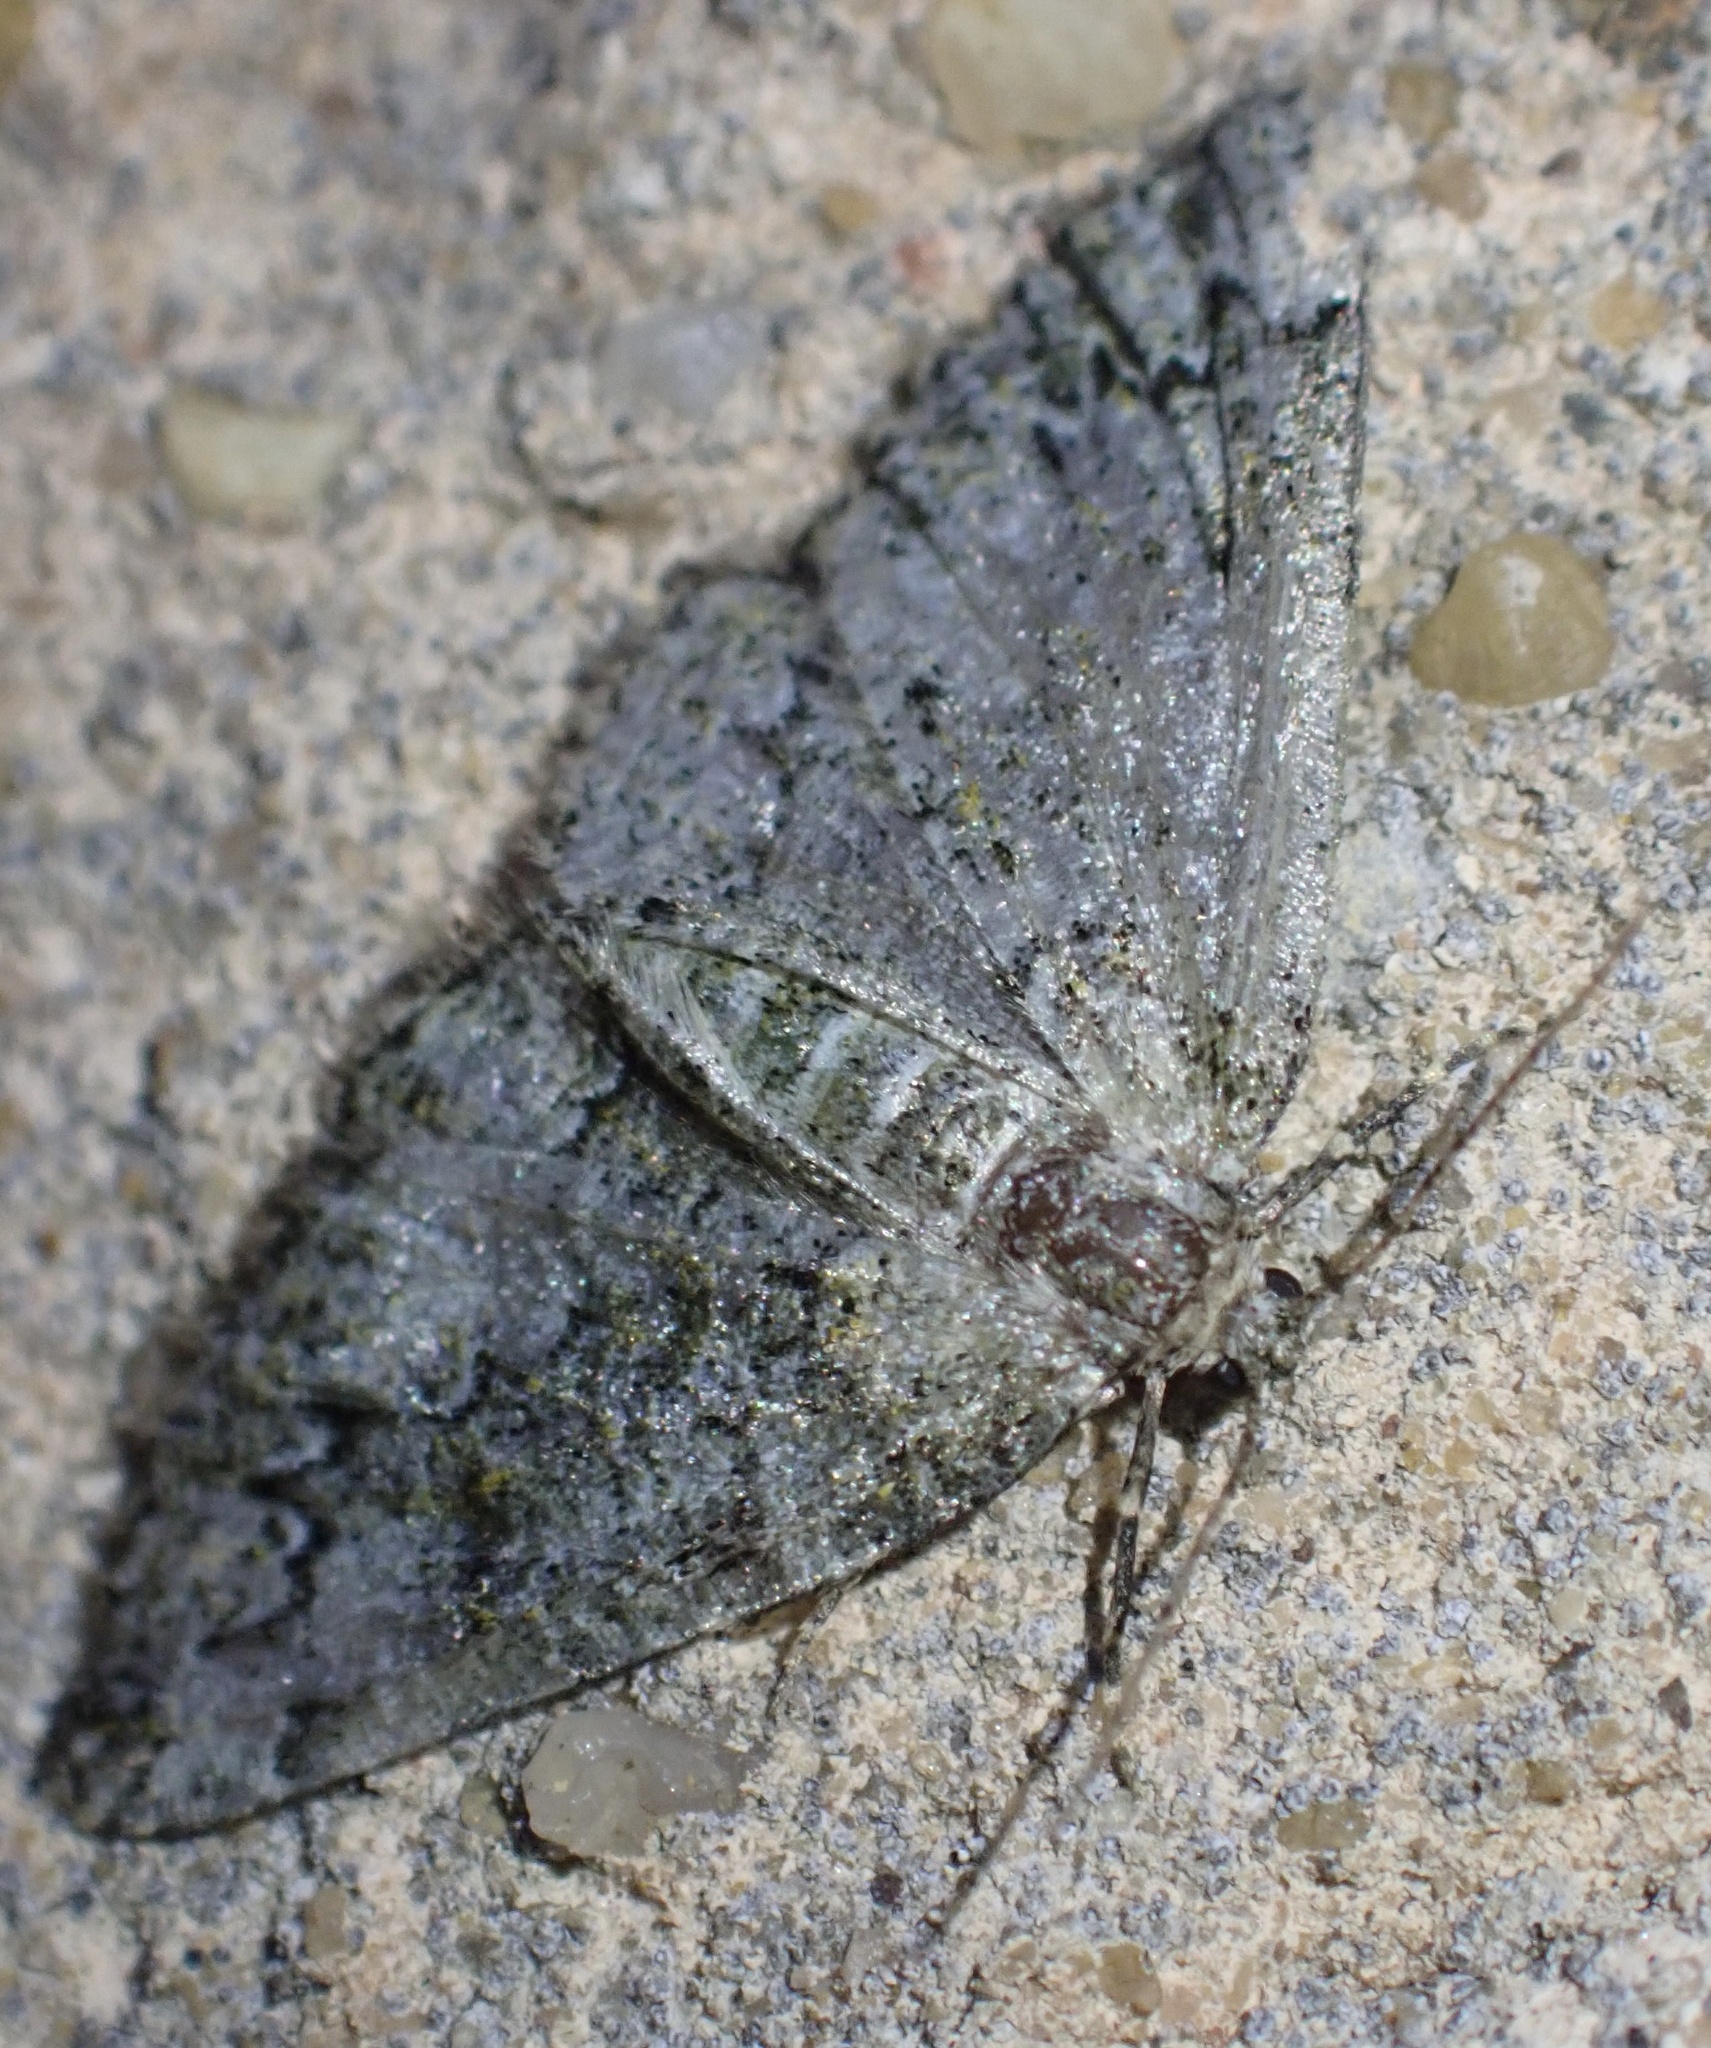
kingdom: Animalia
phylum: Arthropoda
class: Insecta
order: Lepidoptera
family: Geometridae
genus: Cleorodes
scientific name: Cleorodes lichenaria
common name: Brussels lace
